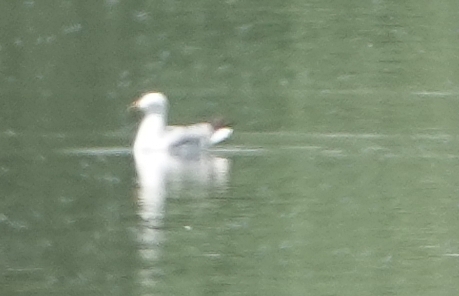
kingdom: Animalia
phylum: Chordata
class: Aves
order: Charadriiformes
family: Laridae
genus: Larus
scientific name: Larus delawarensis
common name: Ring-billed gull
